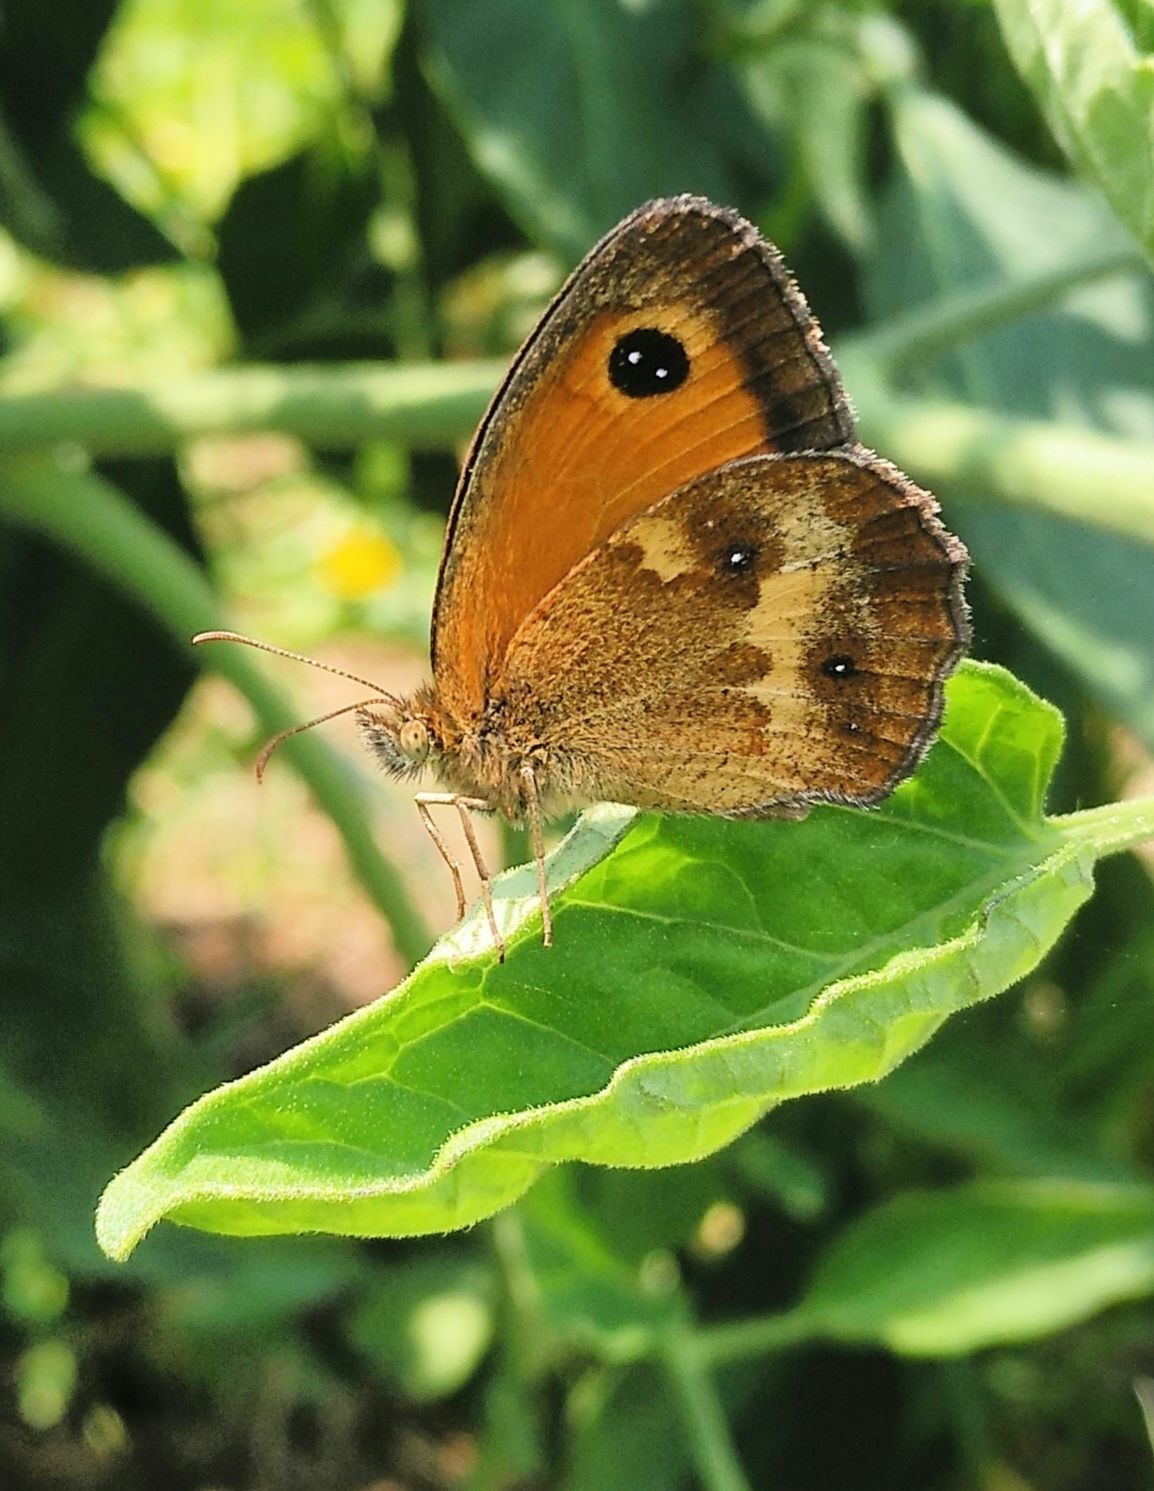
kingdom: Animalia
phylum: Arthropoda
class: Insecta
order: Lepidoptera
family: Nymphalidae
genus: Pyronia
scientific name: Pyronia tithonus
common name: Gatekeeper
